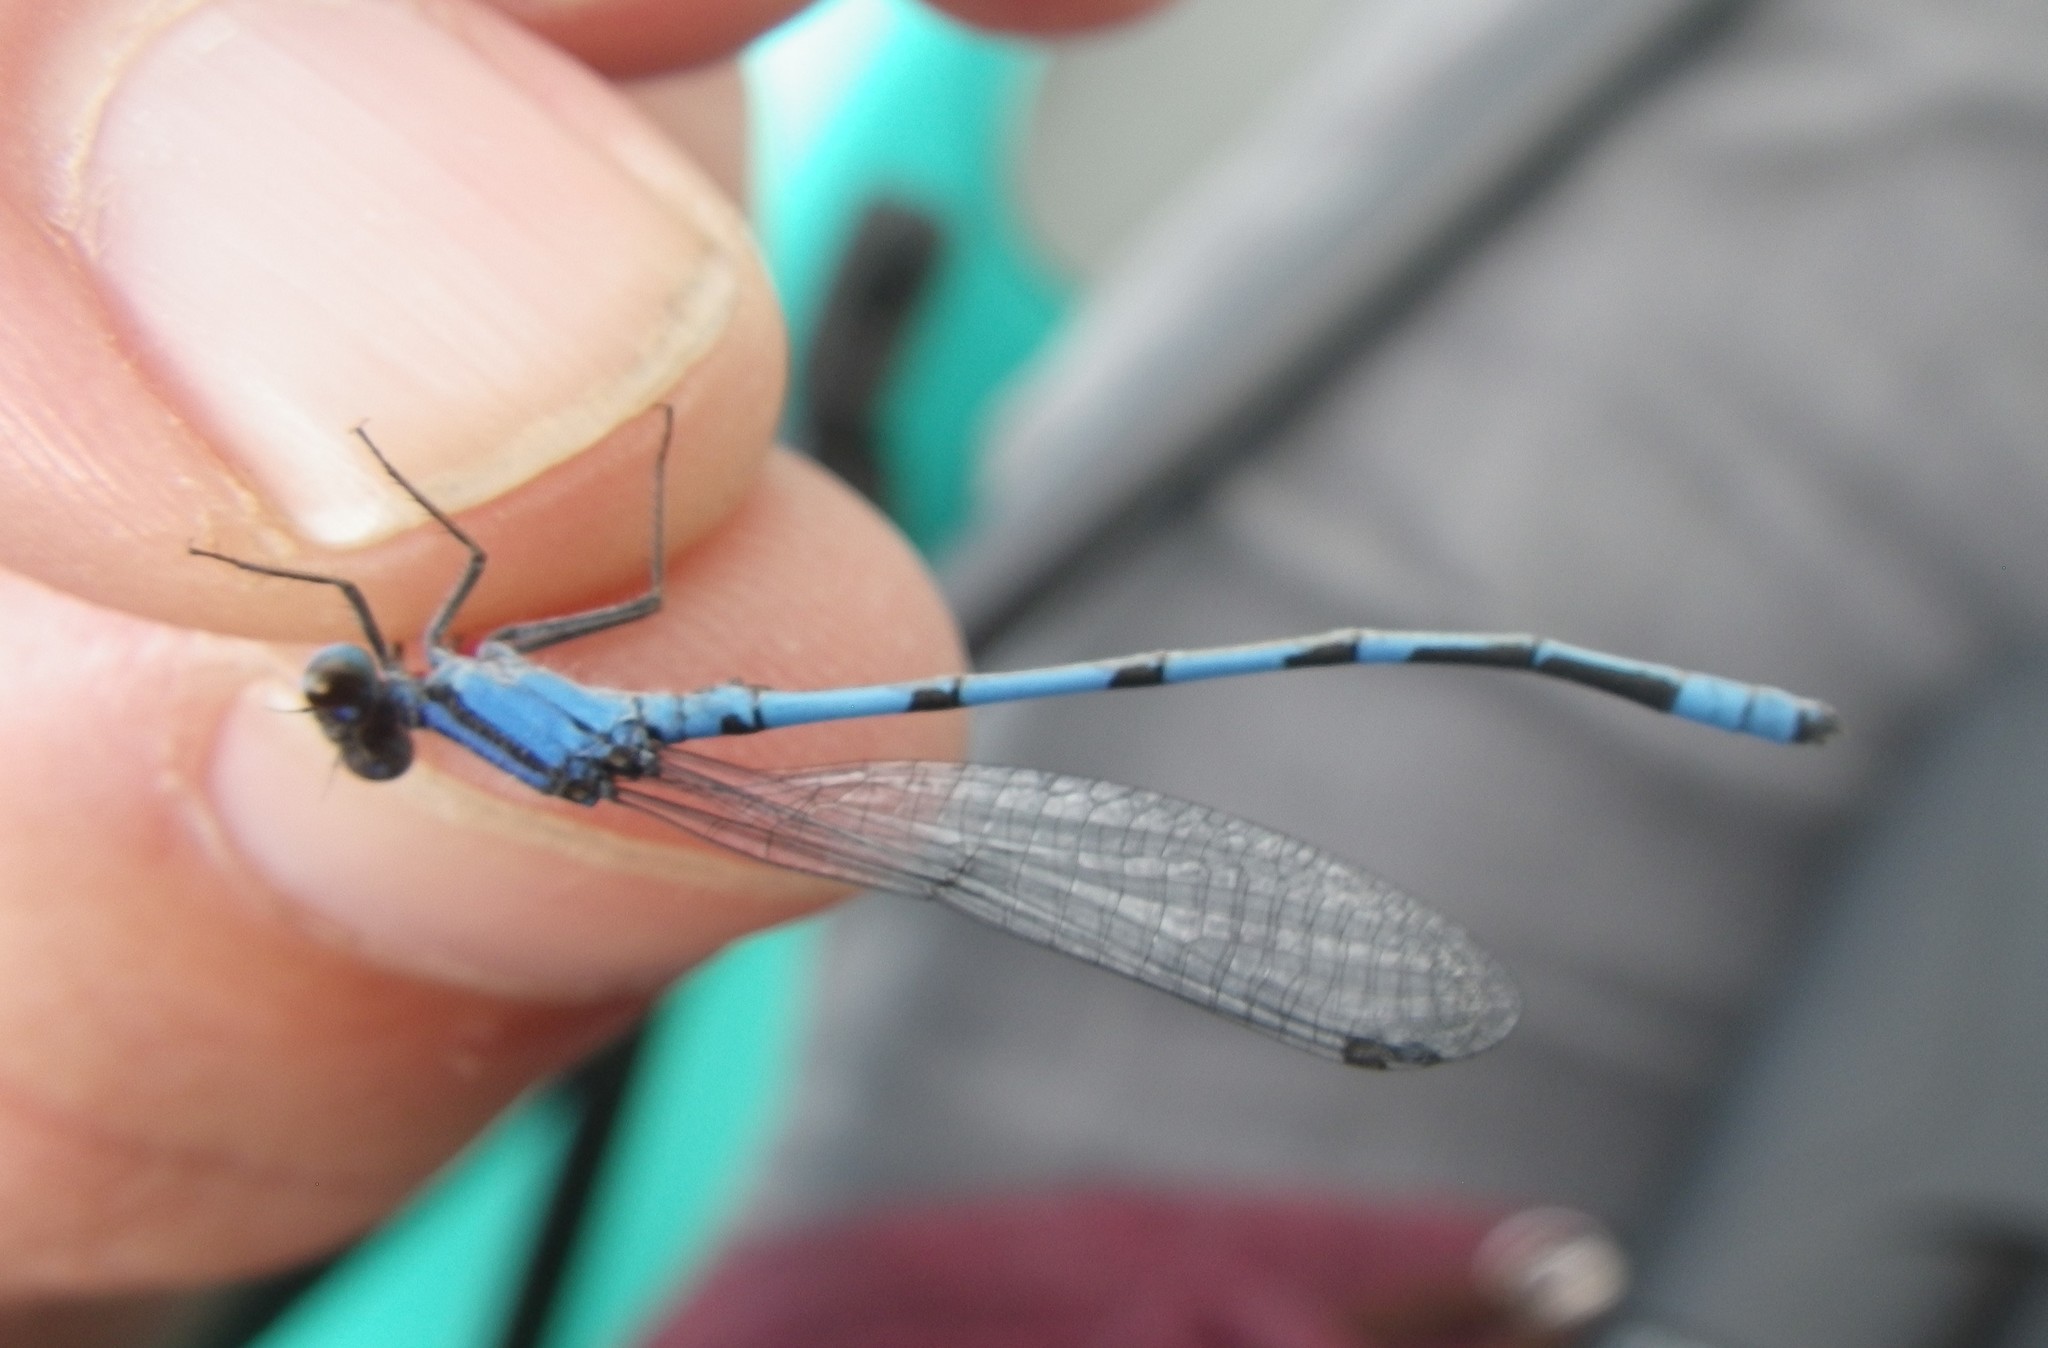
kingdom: Animalia
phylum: Arthropoda
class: Insecta
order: Odonata
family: Coenagrionidae
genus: Enallagma
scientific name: Enallagma civile
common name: Damselfly
